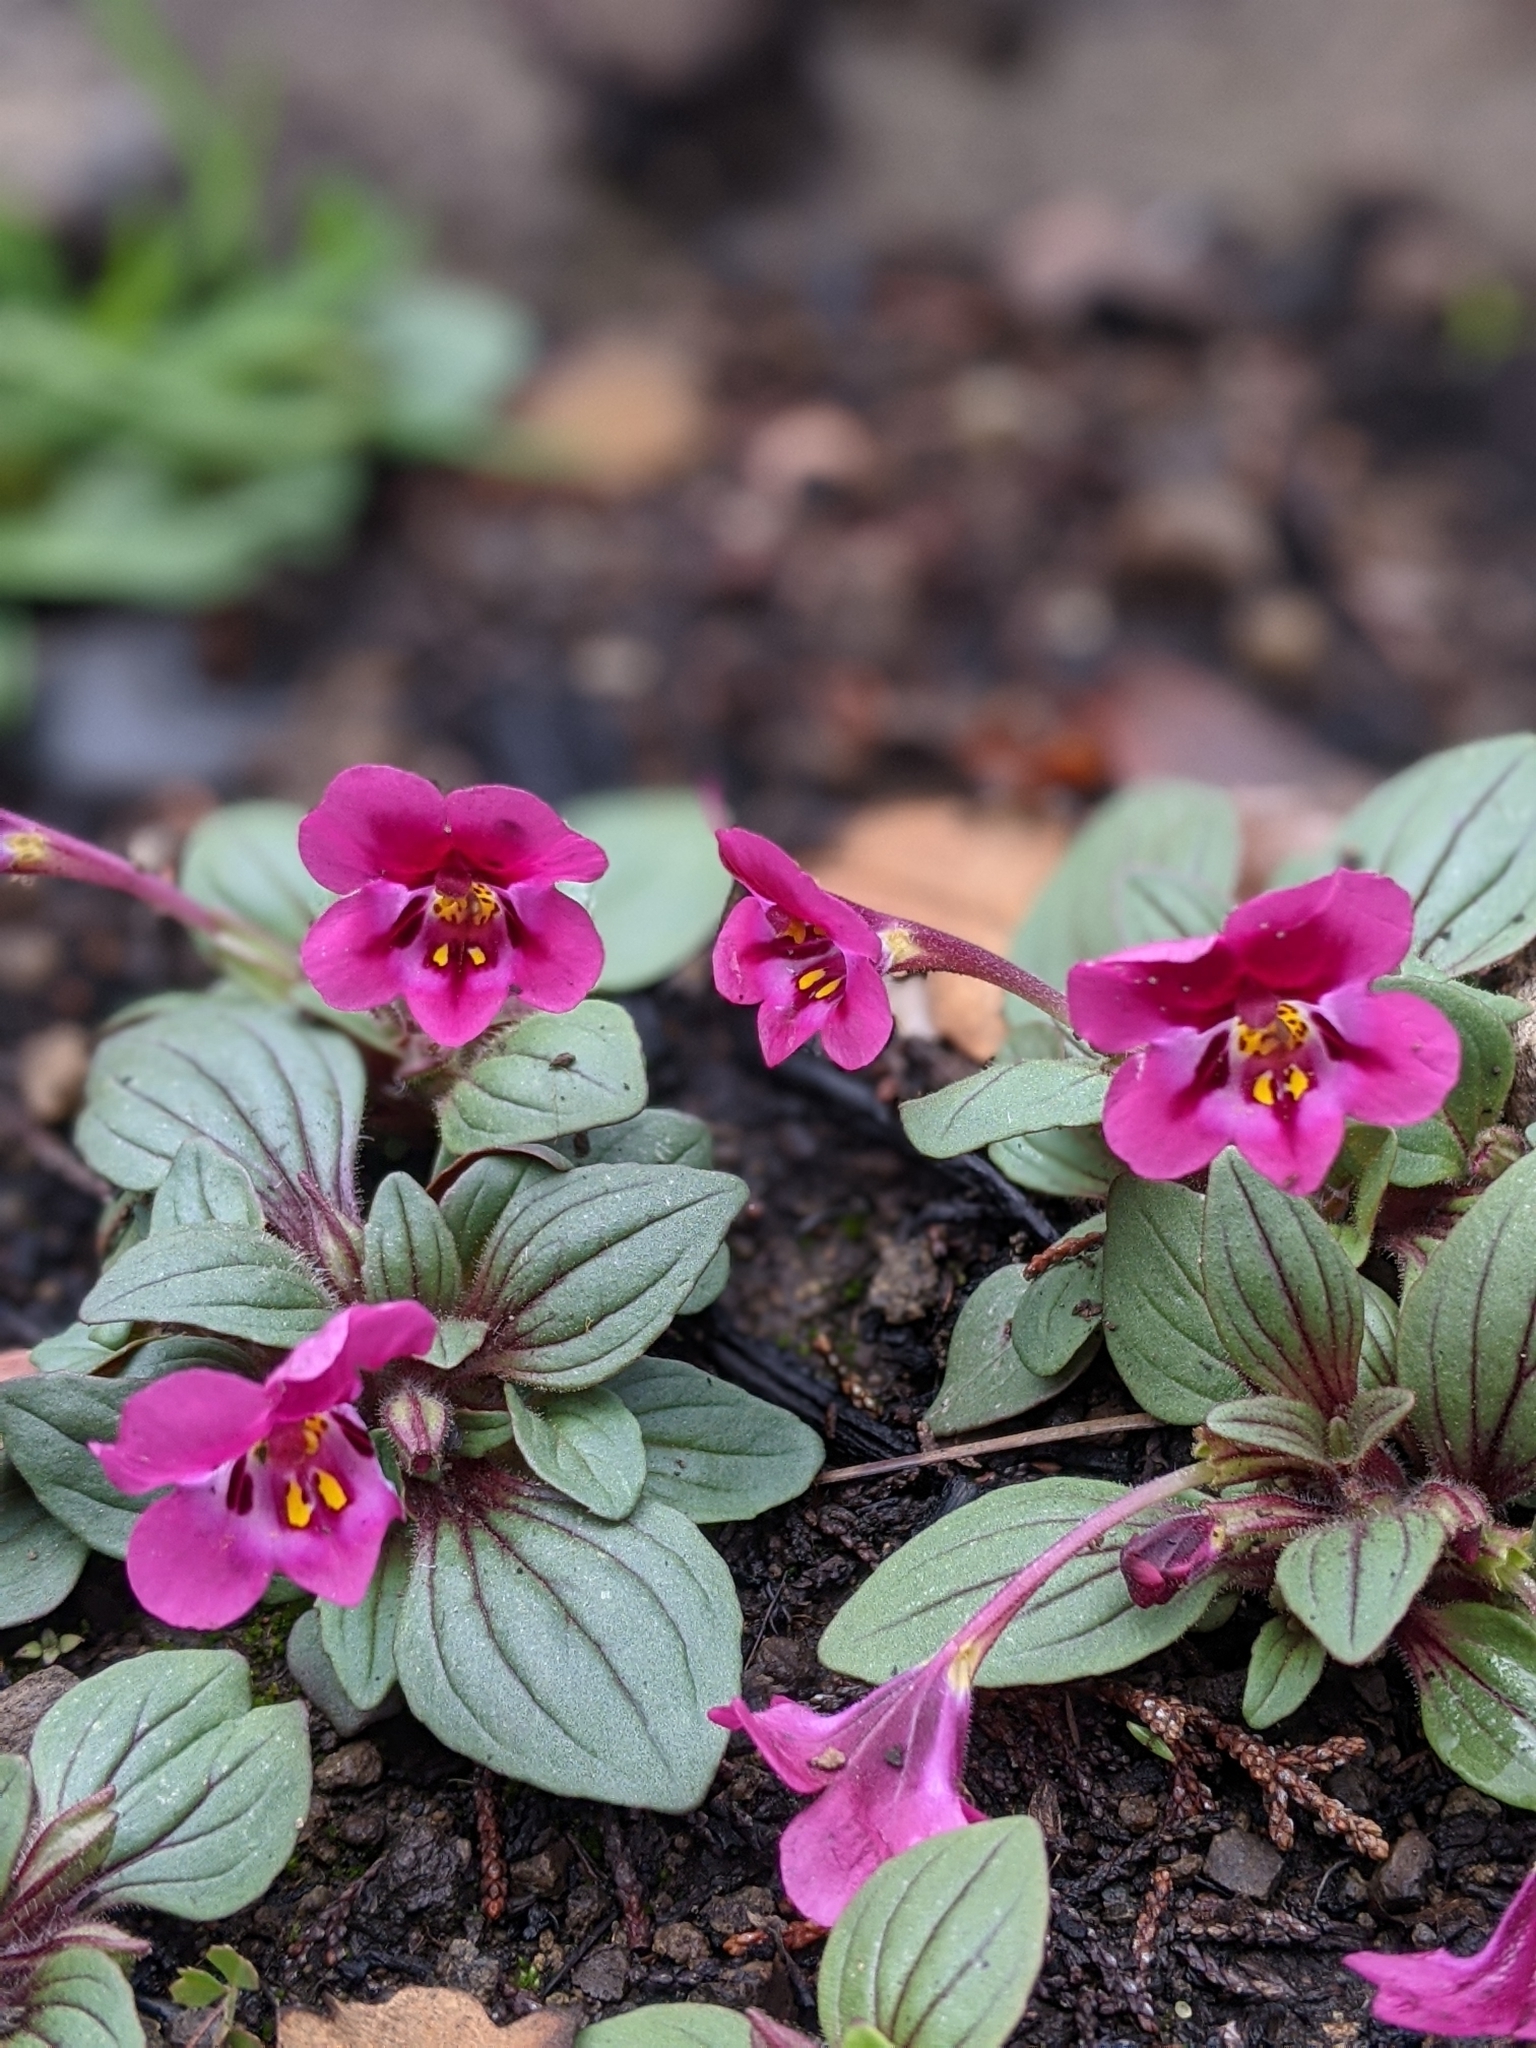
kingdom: Plantae
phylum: Tracheophyta
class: Magnoliopsida
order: Lamiales
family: Phrymaceae
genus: Diplacus
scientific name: Diplacus kelloggii
